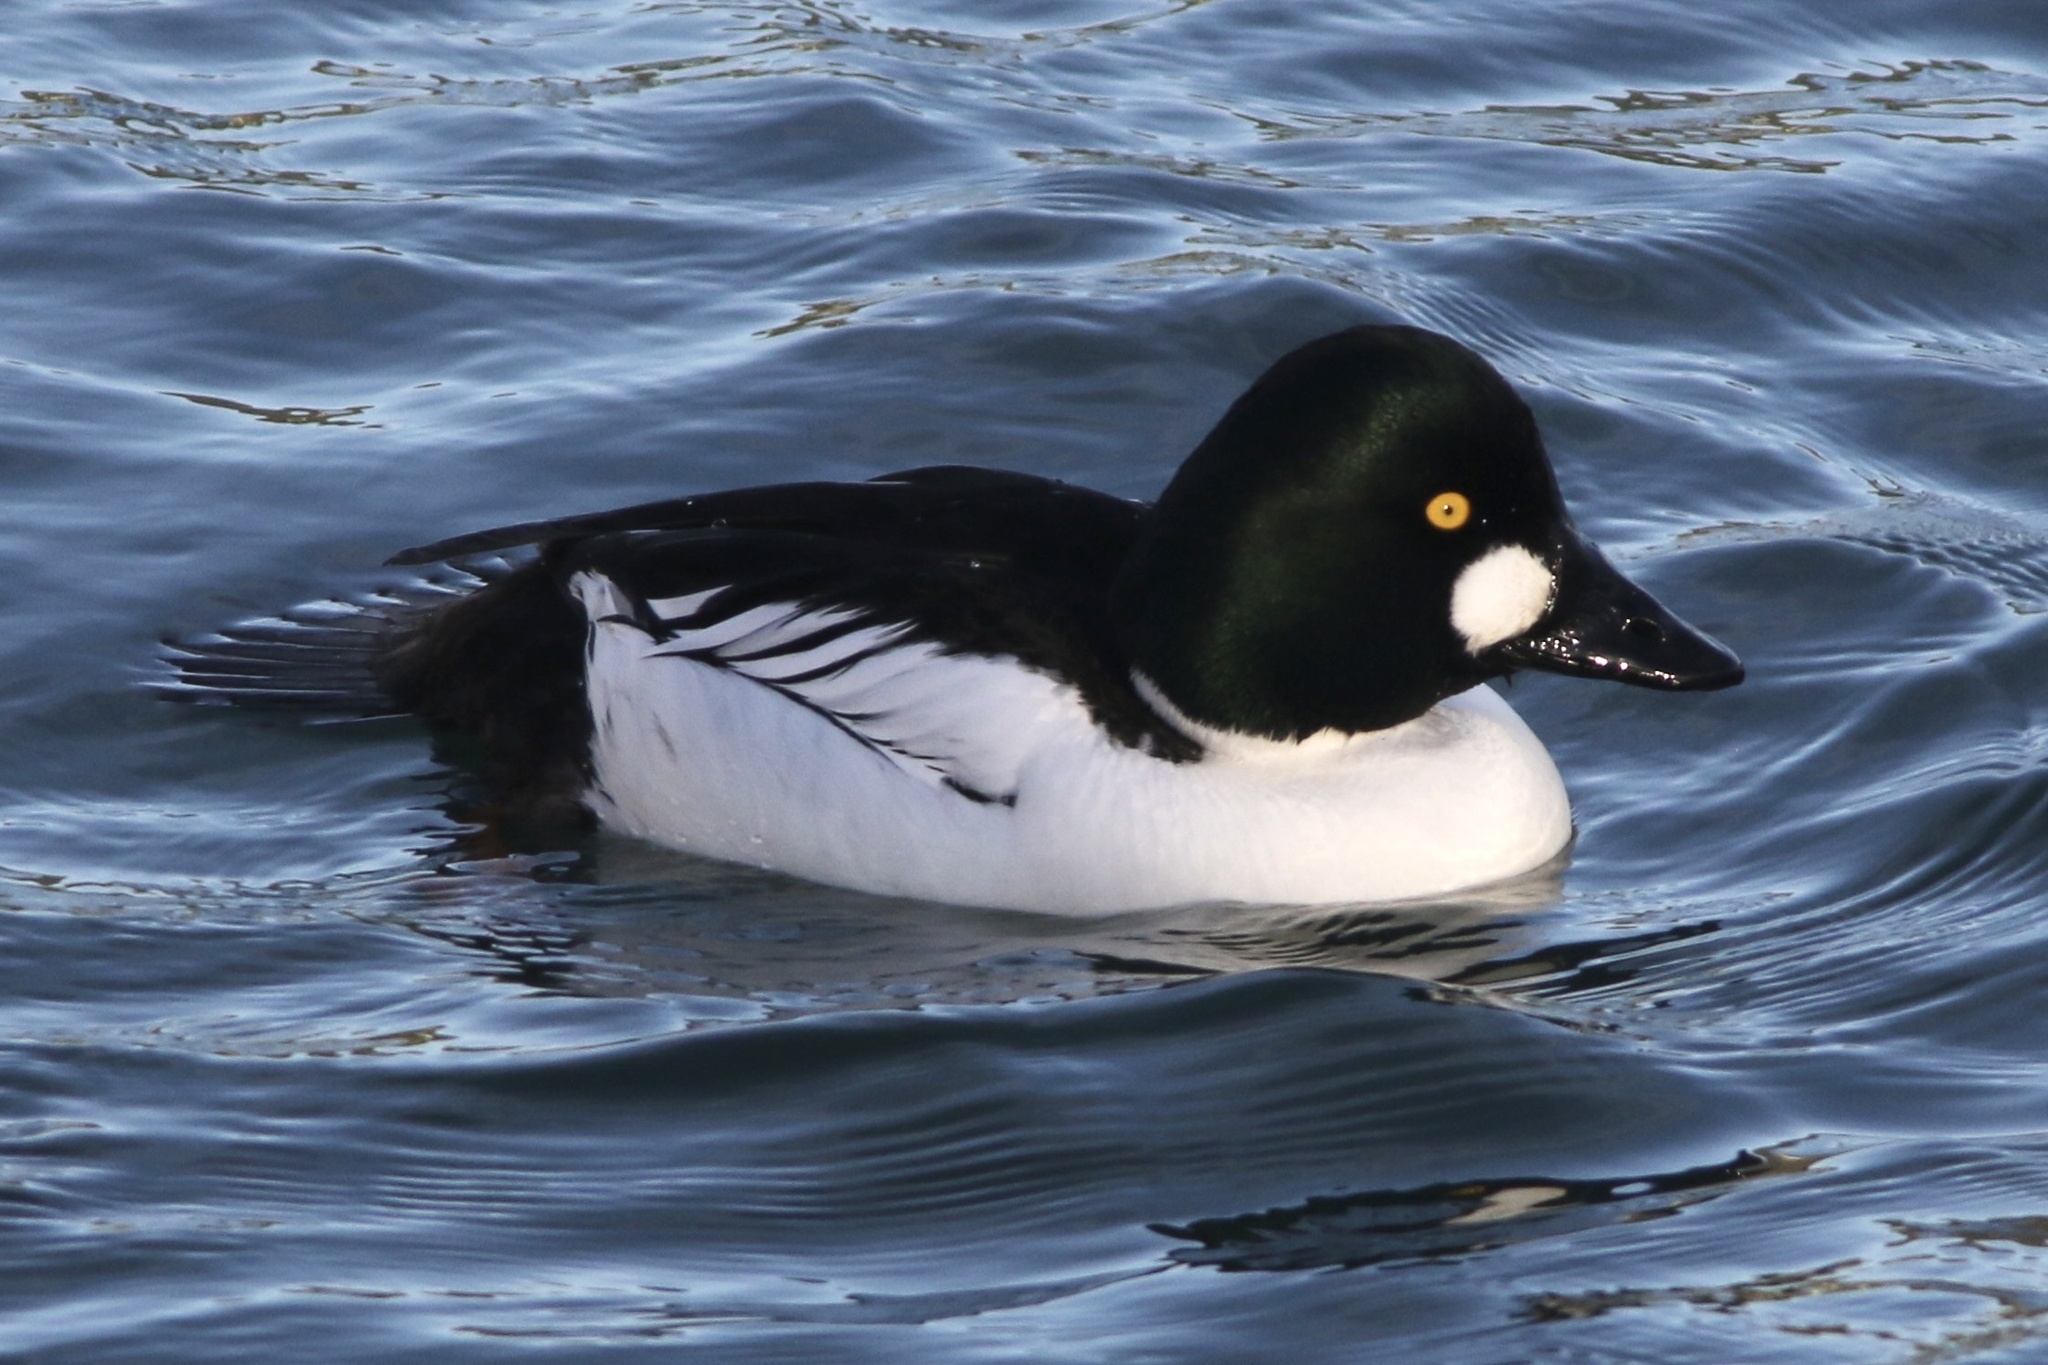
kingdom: Animalia
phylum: Chordata
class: Aves
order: Anseriformes
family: Anatidae
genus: Bucephala
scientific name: Bucephala clangula
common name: Common goldeneye
